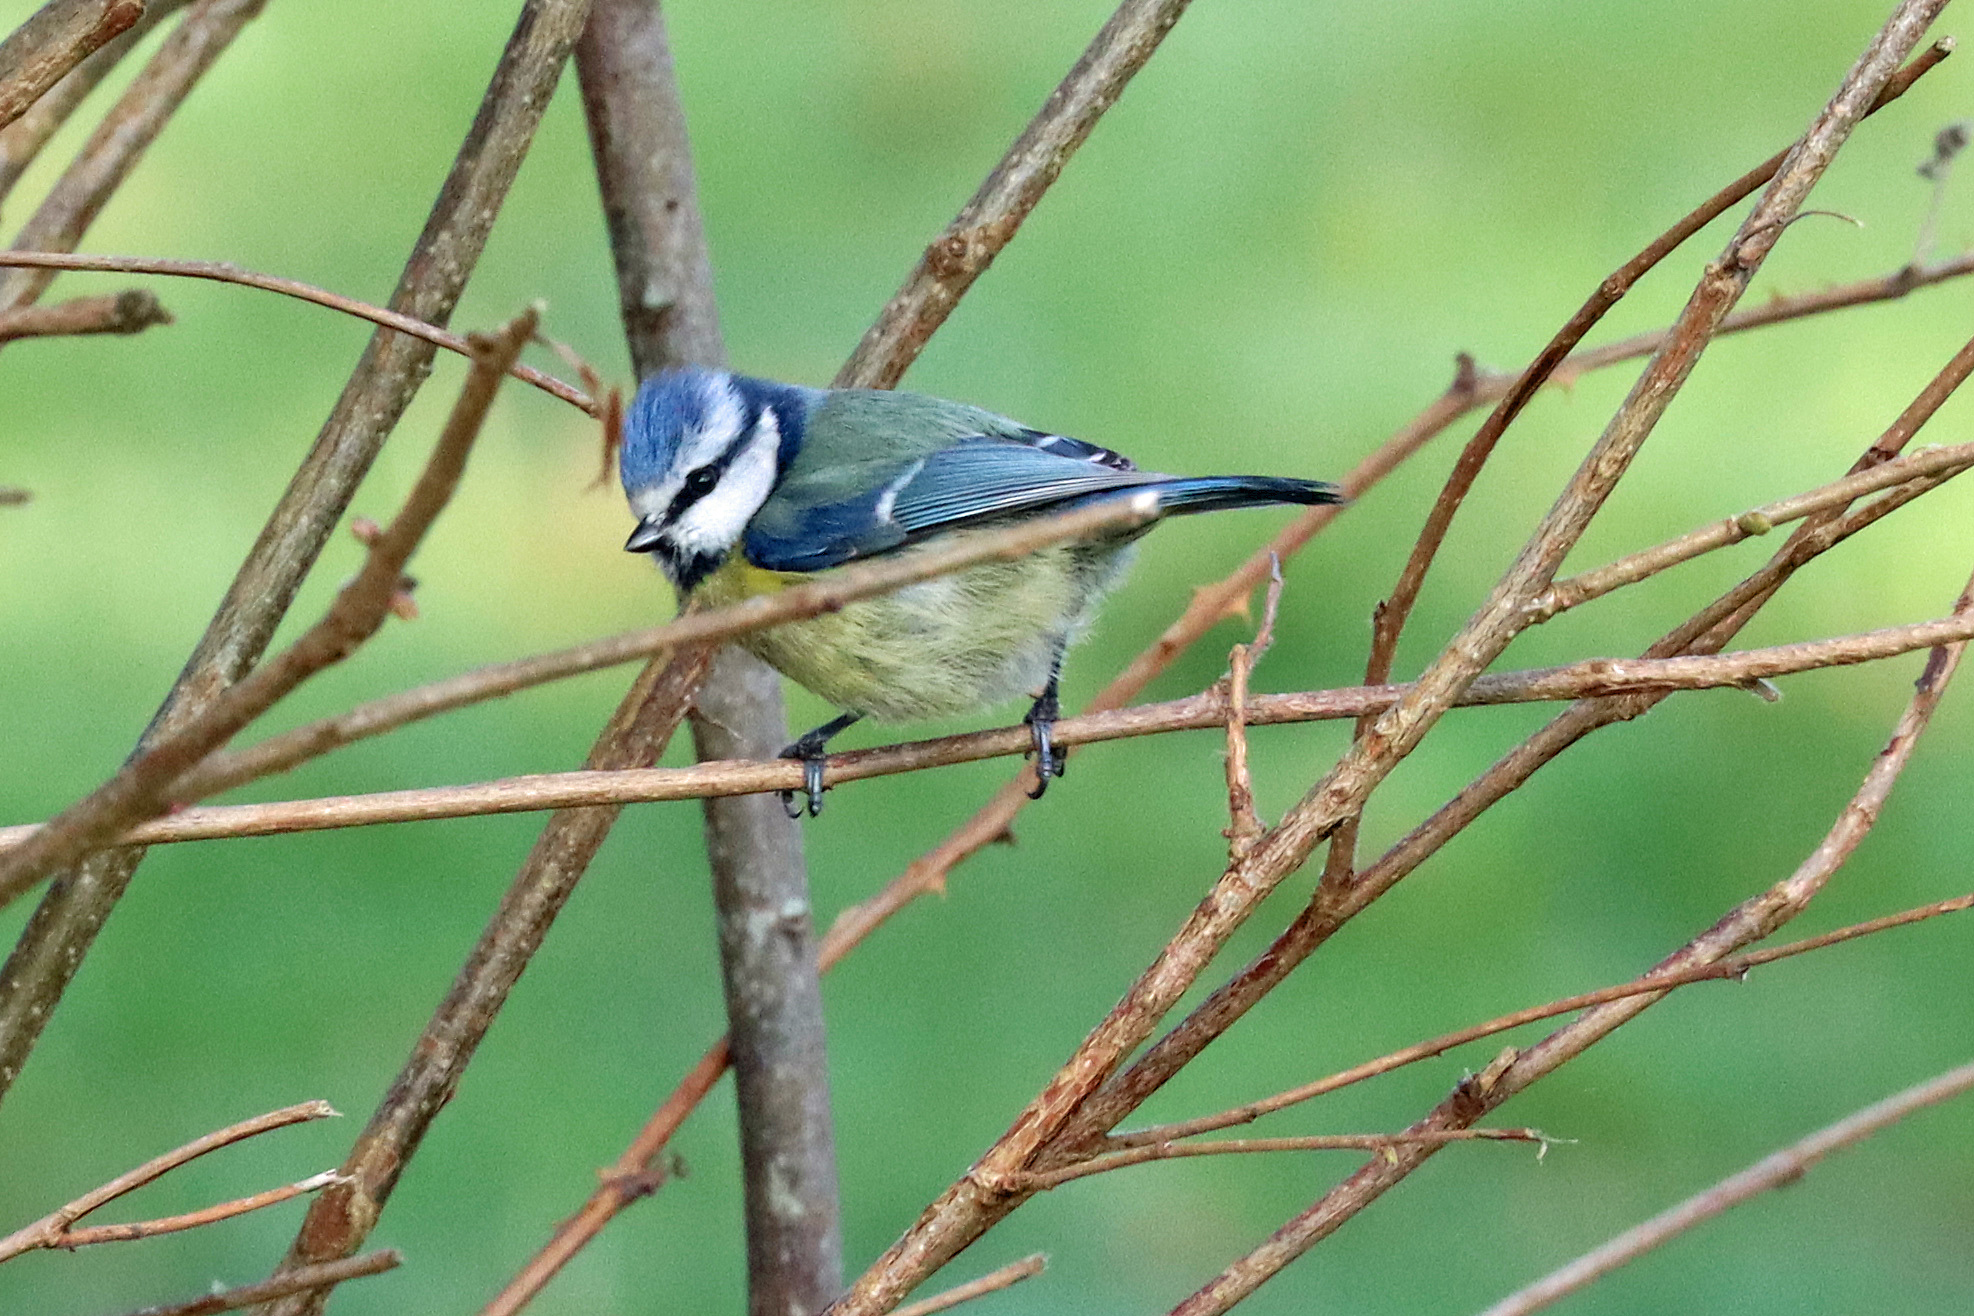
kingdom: Animalia
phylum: Chordata
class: Aves
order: Passeriformes
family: Paridae
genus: Cyanistes
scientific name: Cyanistes caeruleus
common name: Eurasian blue tit
